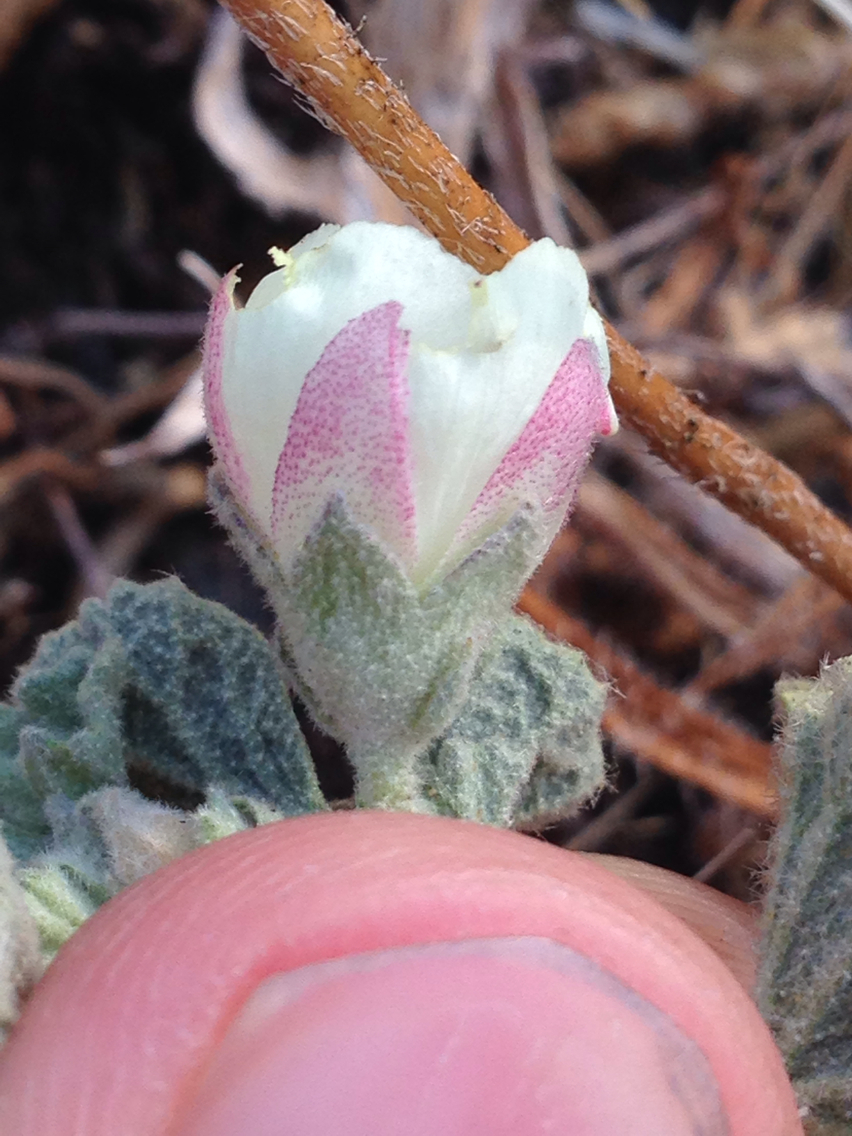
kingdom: Plantae
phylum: Tracheophyta
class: Magnoliopsida
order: Malvales
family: Malvaceae
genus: Malvella
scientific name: Malvella leprosa
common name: Alkali-mallow
